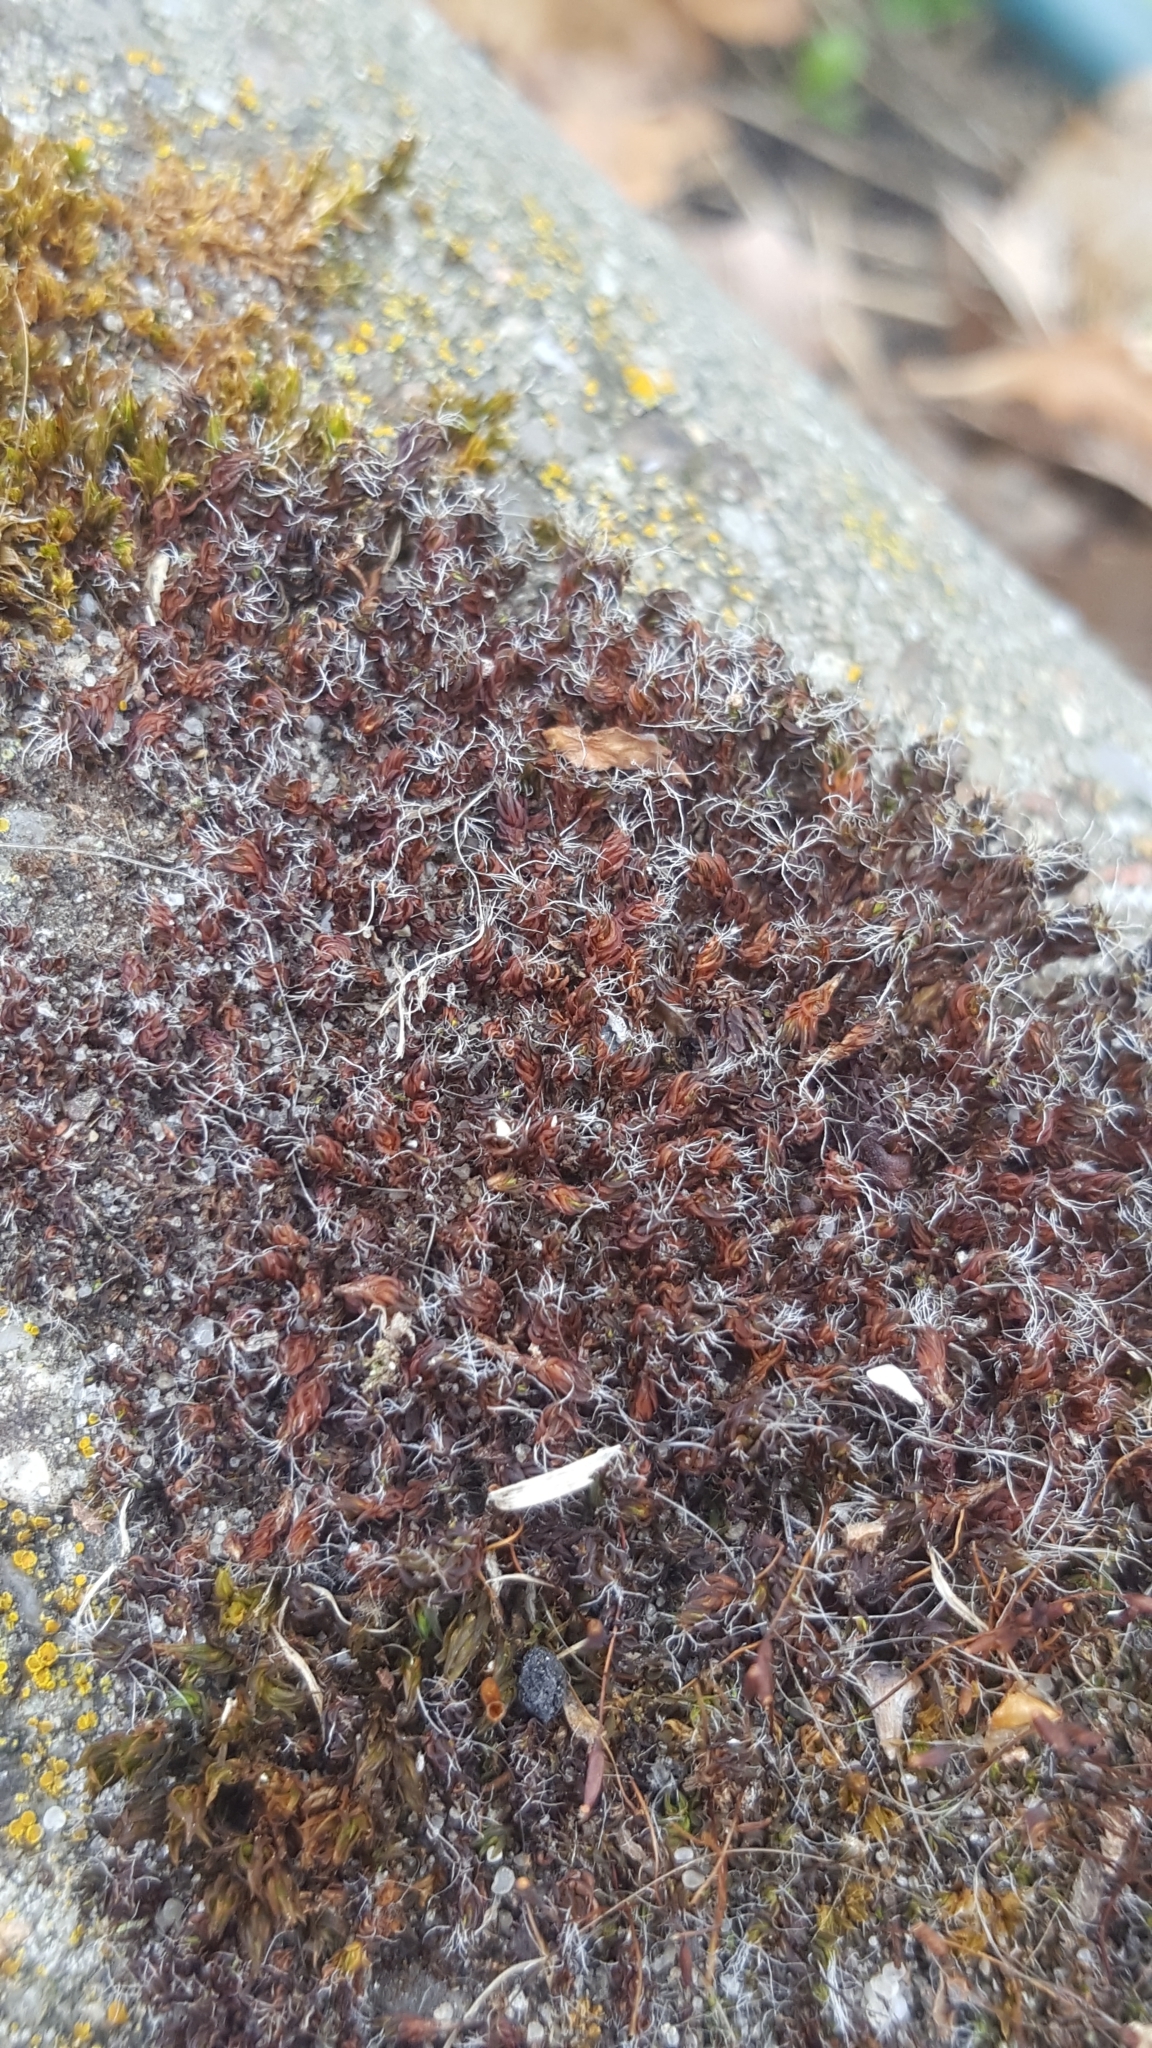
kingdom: Plantae
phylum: Bryophyta
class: Bryopsida
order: Pottiales
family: Pottiaceae
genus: Syntrichia
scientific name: Syntrichia ruralis
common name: Sidewalk screw moss
